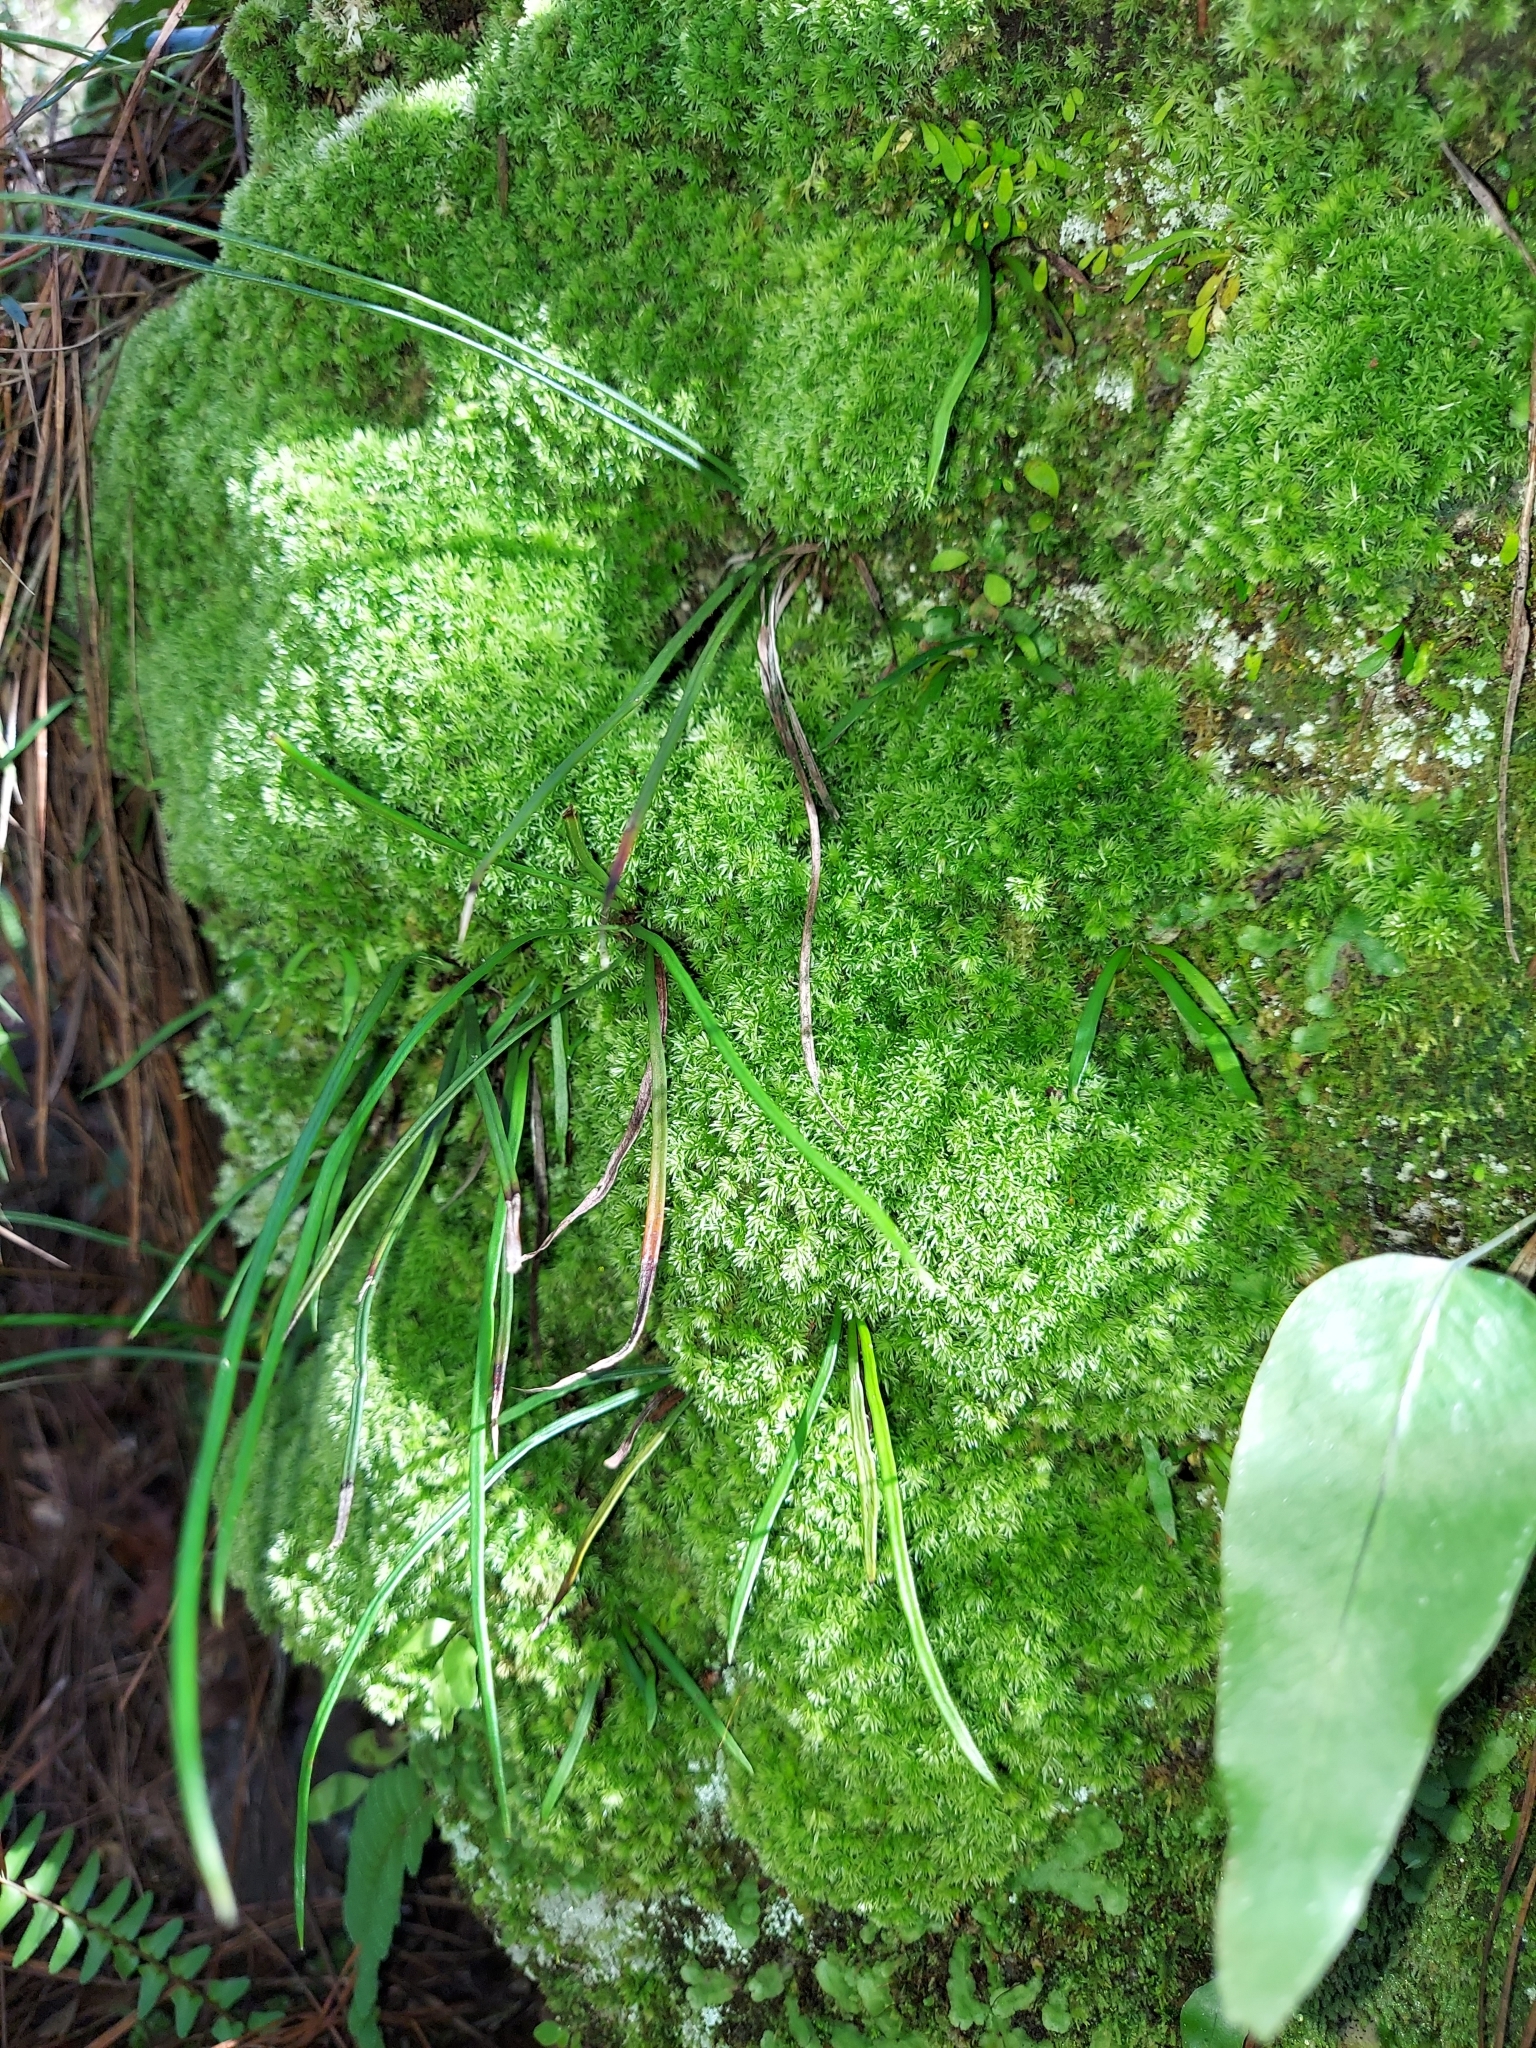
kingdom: Plantae
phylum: Tracheophyta
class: Polypodiopsida
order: Polypodiales
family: Pteridaceae
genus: Vittaria
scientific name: Vittaria lineata
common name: Shoestring fern
